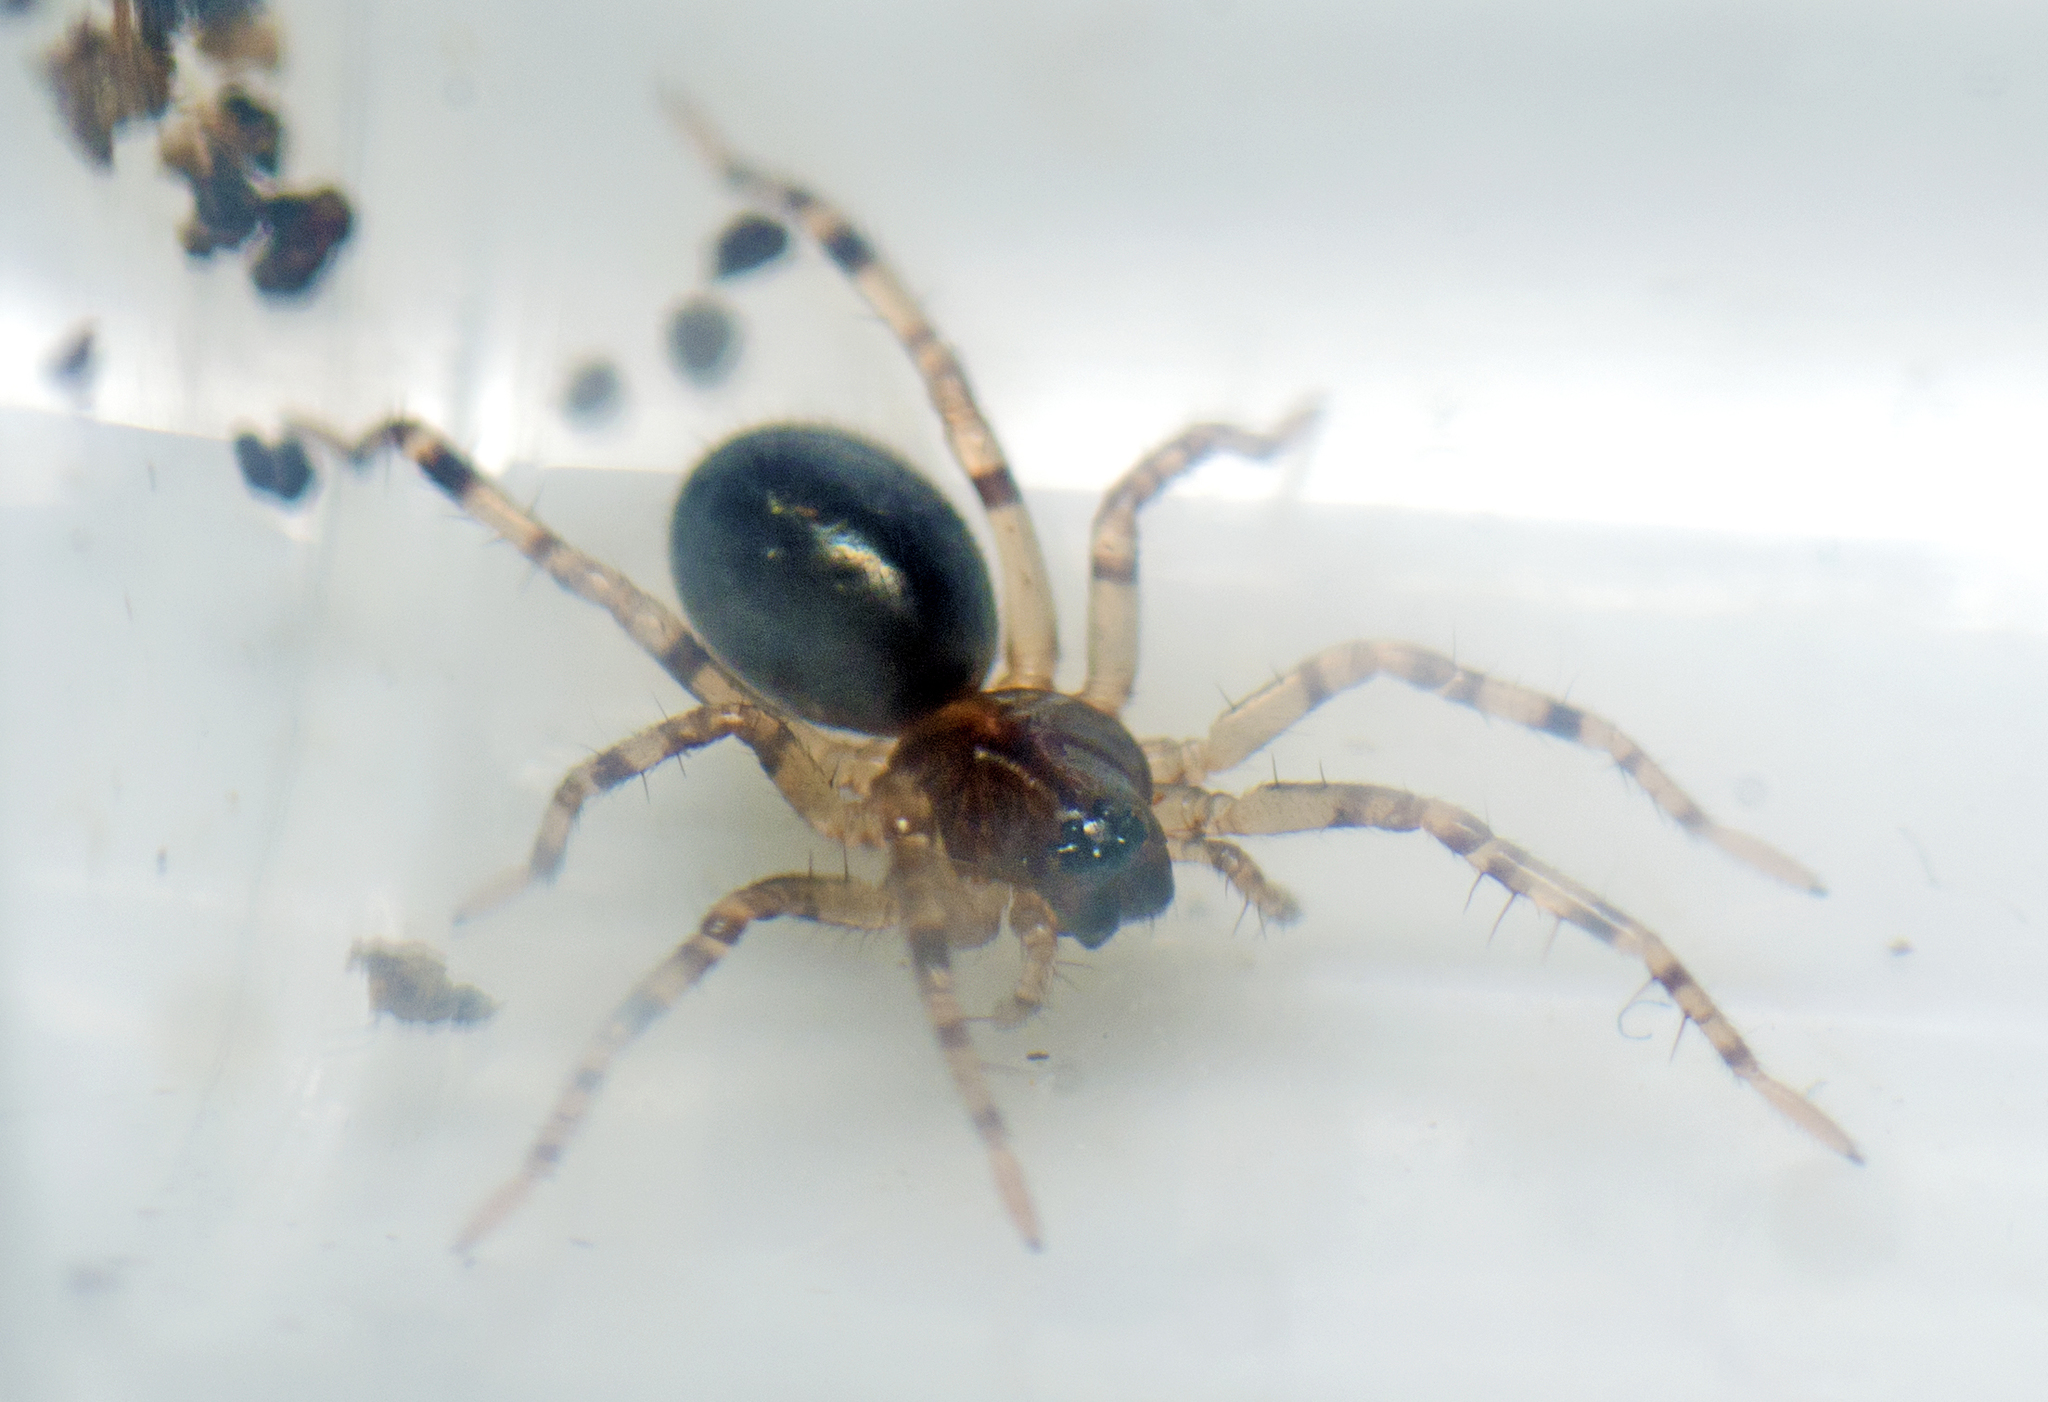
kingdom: Animalia
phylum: Arthropoda
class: Arachnida
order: Araneae
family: Corinnidae
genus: Battalus
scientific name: Battalus wallum
